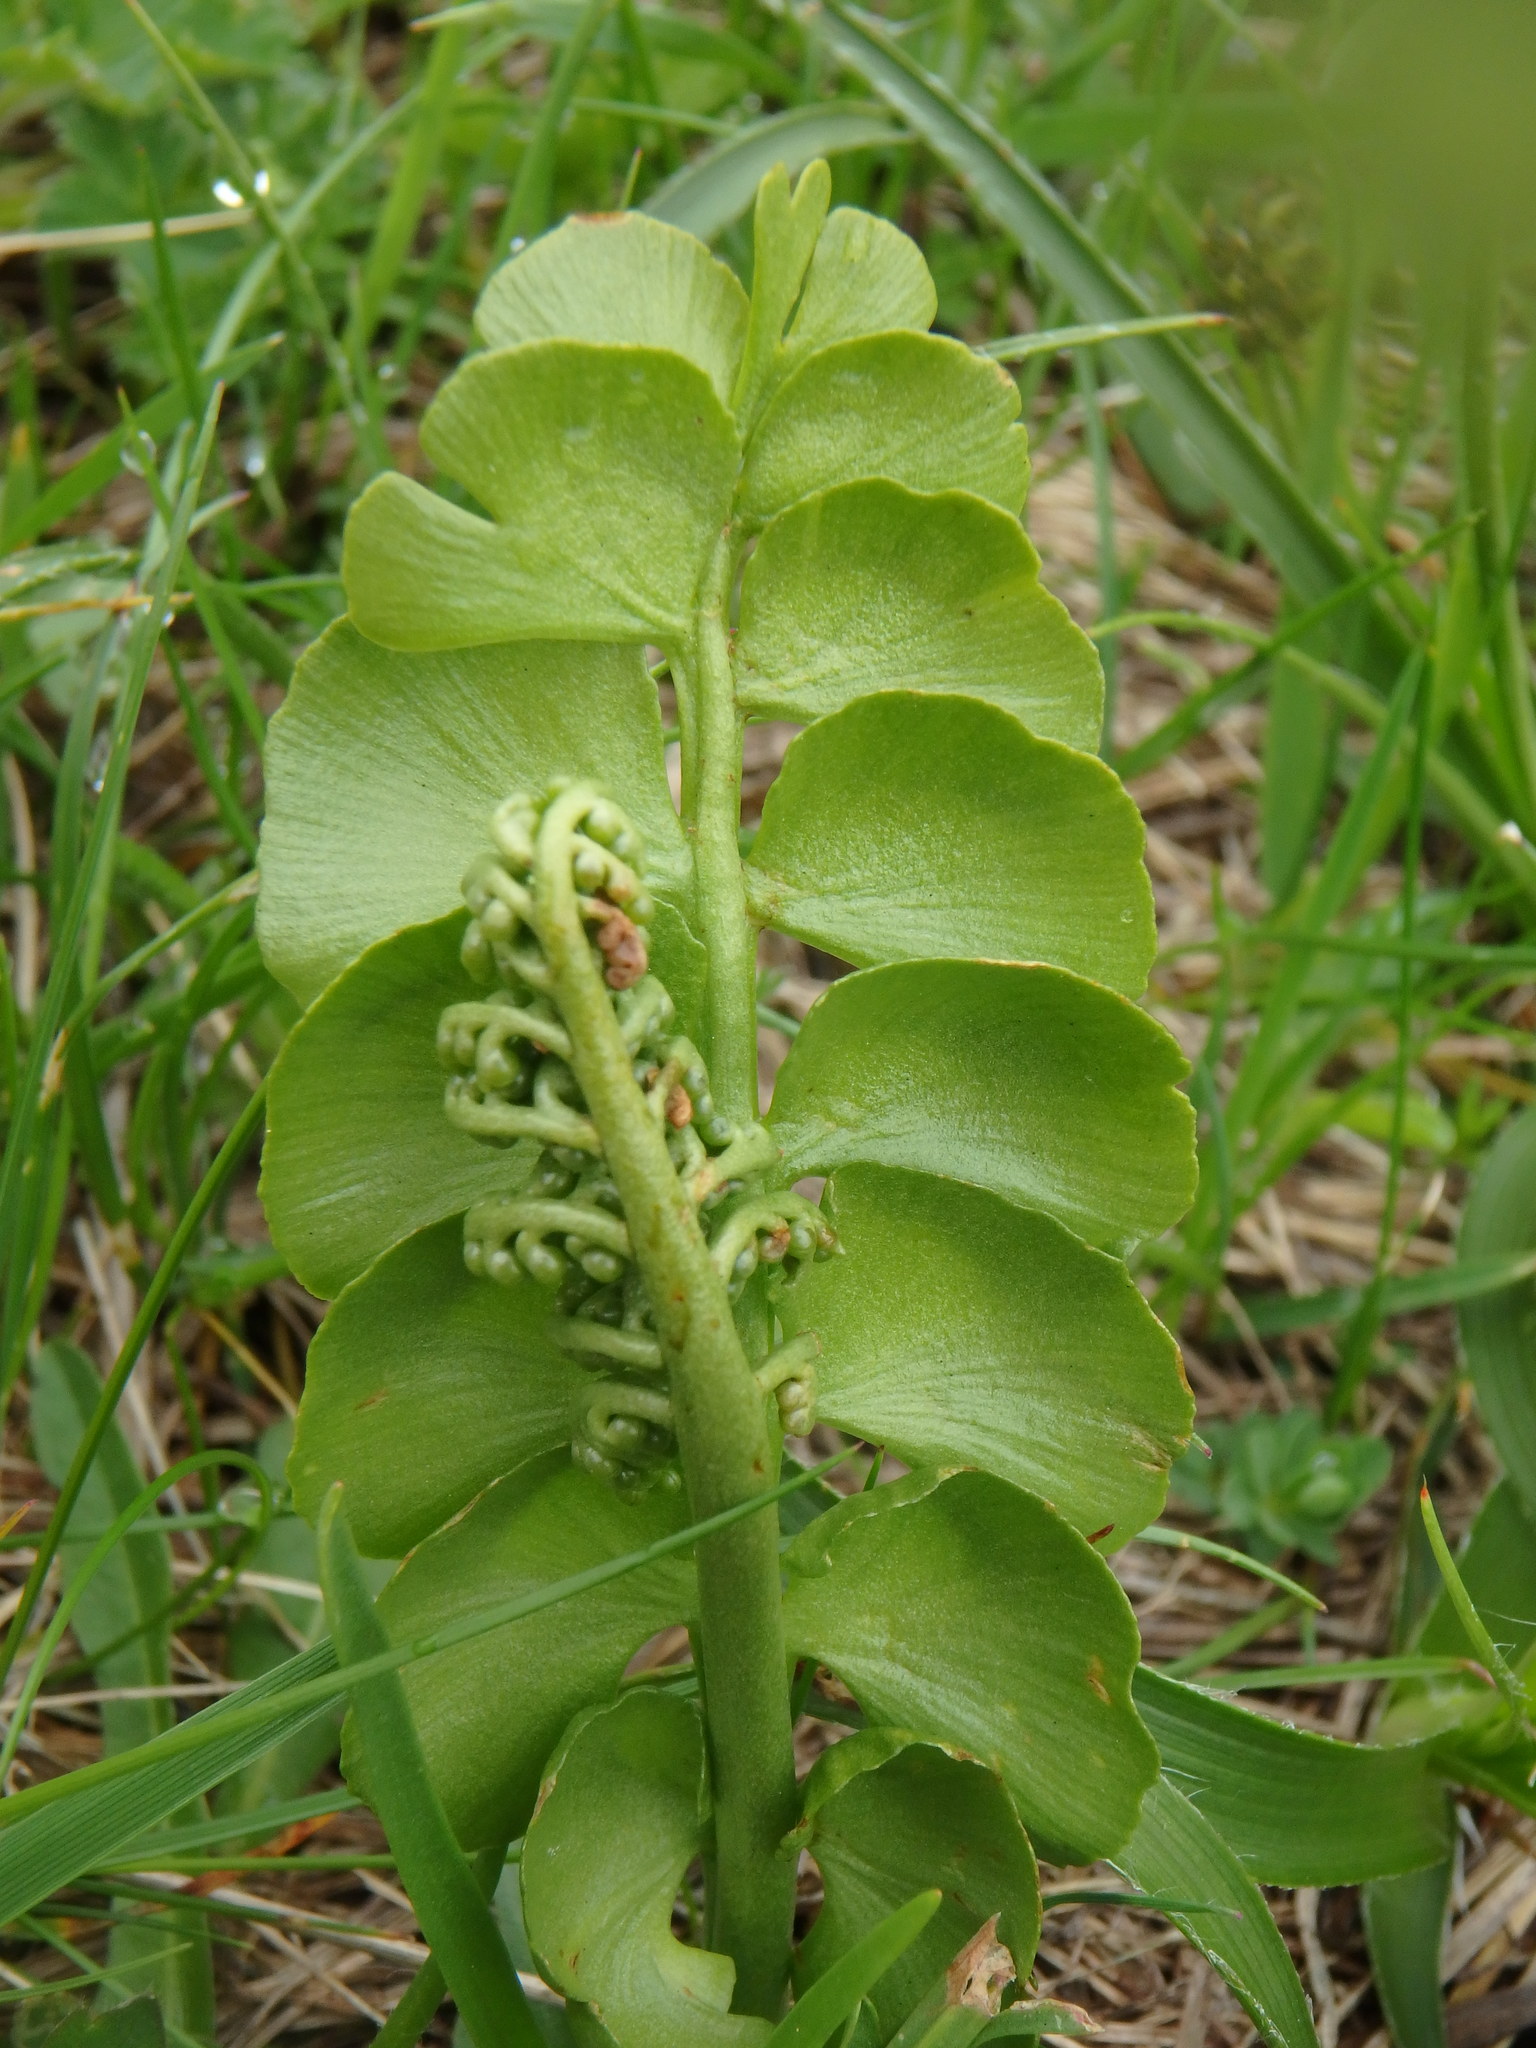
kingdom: Plantae
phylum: Tracheophyta
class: Polypodiopsida
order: Ophioglossales
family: Ophioglossaceae
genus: Botrychium
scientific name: Botrychium lunaria
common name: Moonwort
